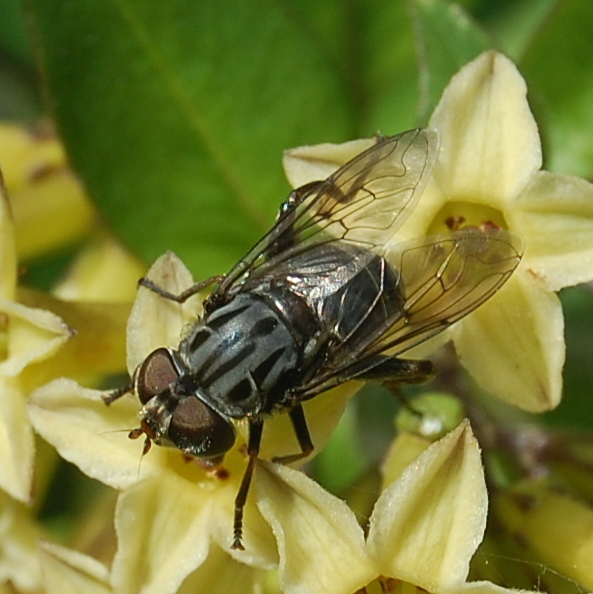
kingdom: Animalia
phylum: Arthropoda
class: Insecta
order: Diptera
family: Syrphidae
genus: Palpada
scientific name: Palpada furcata
